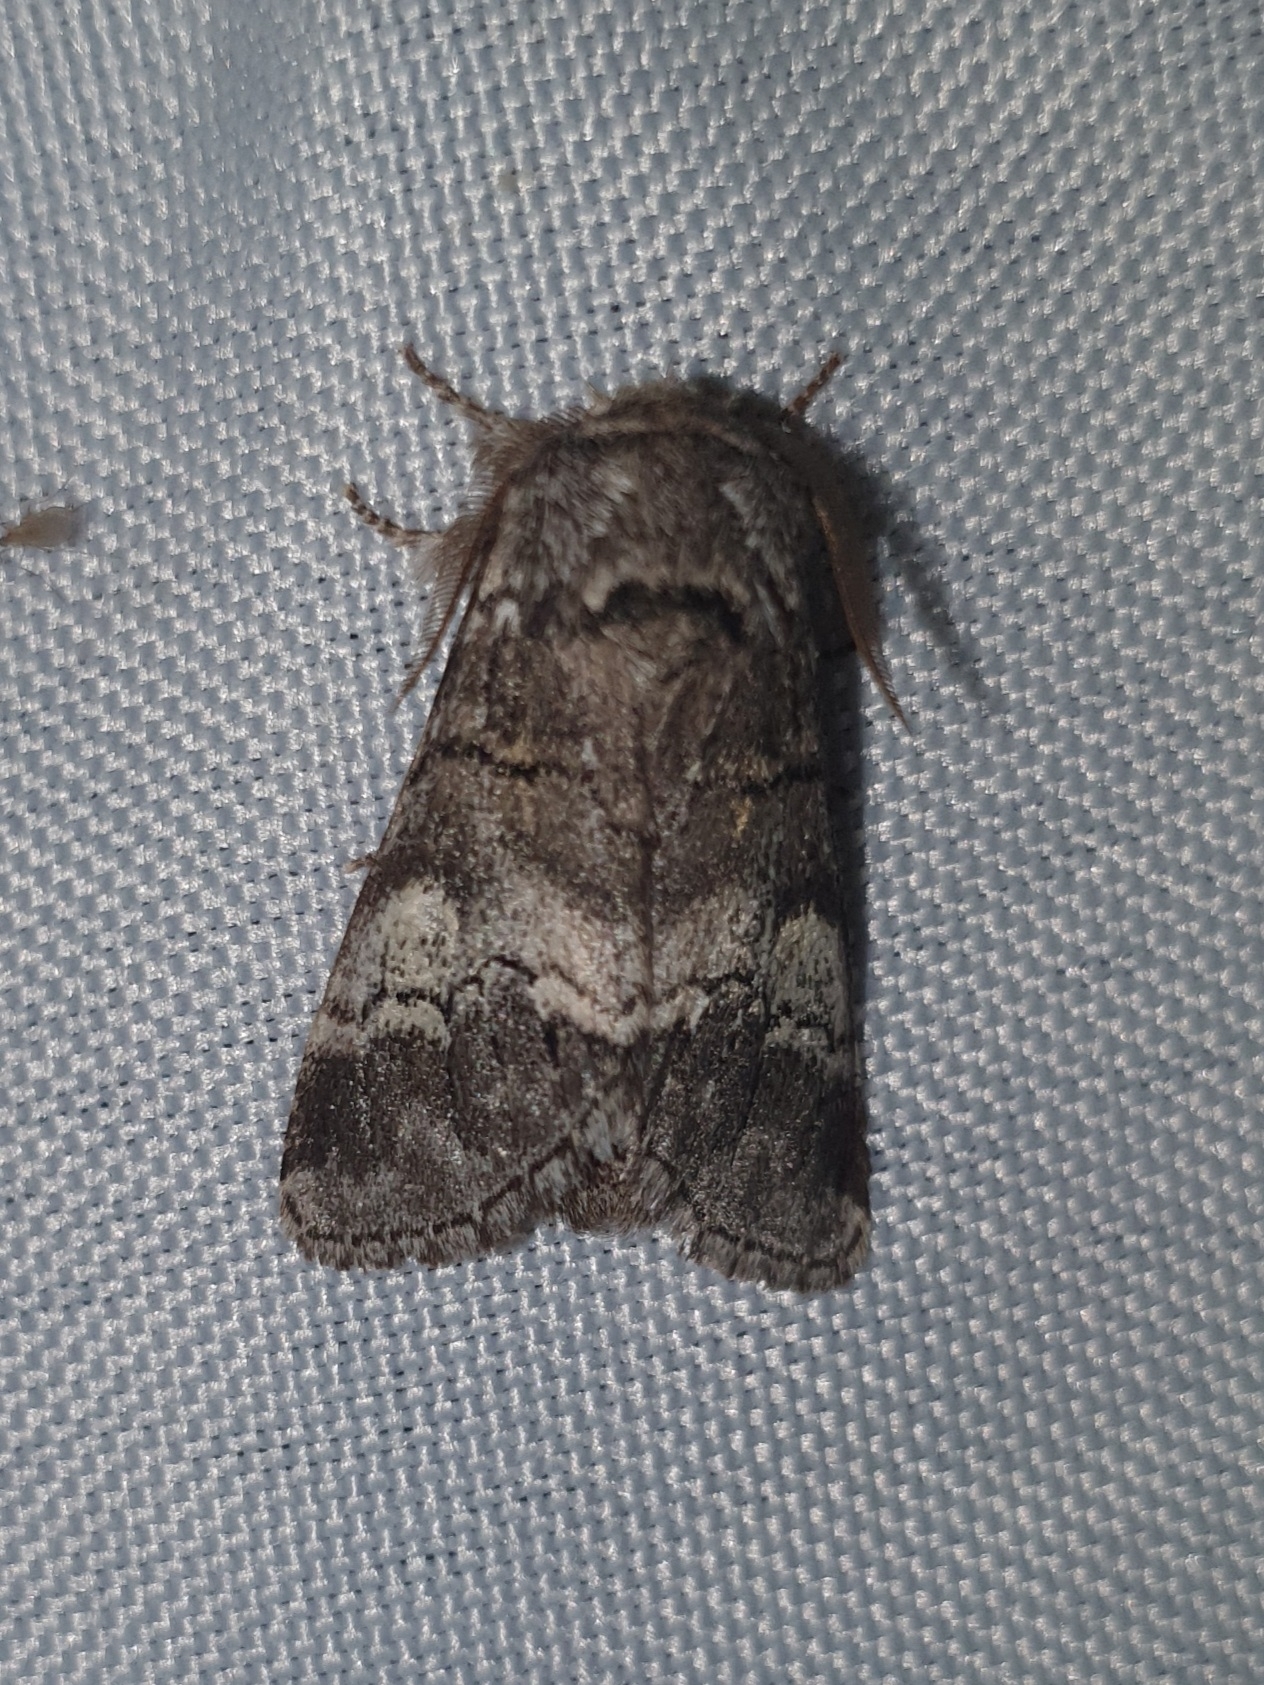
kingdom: Animalia
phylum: Arthropoda
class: Insecta
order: Lepidoptera
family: Notodontidae
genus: Drymonia
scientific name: Drymonia querna
